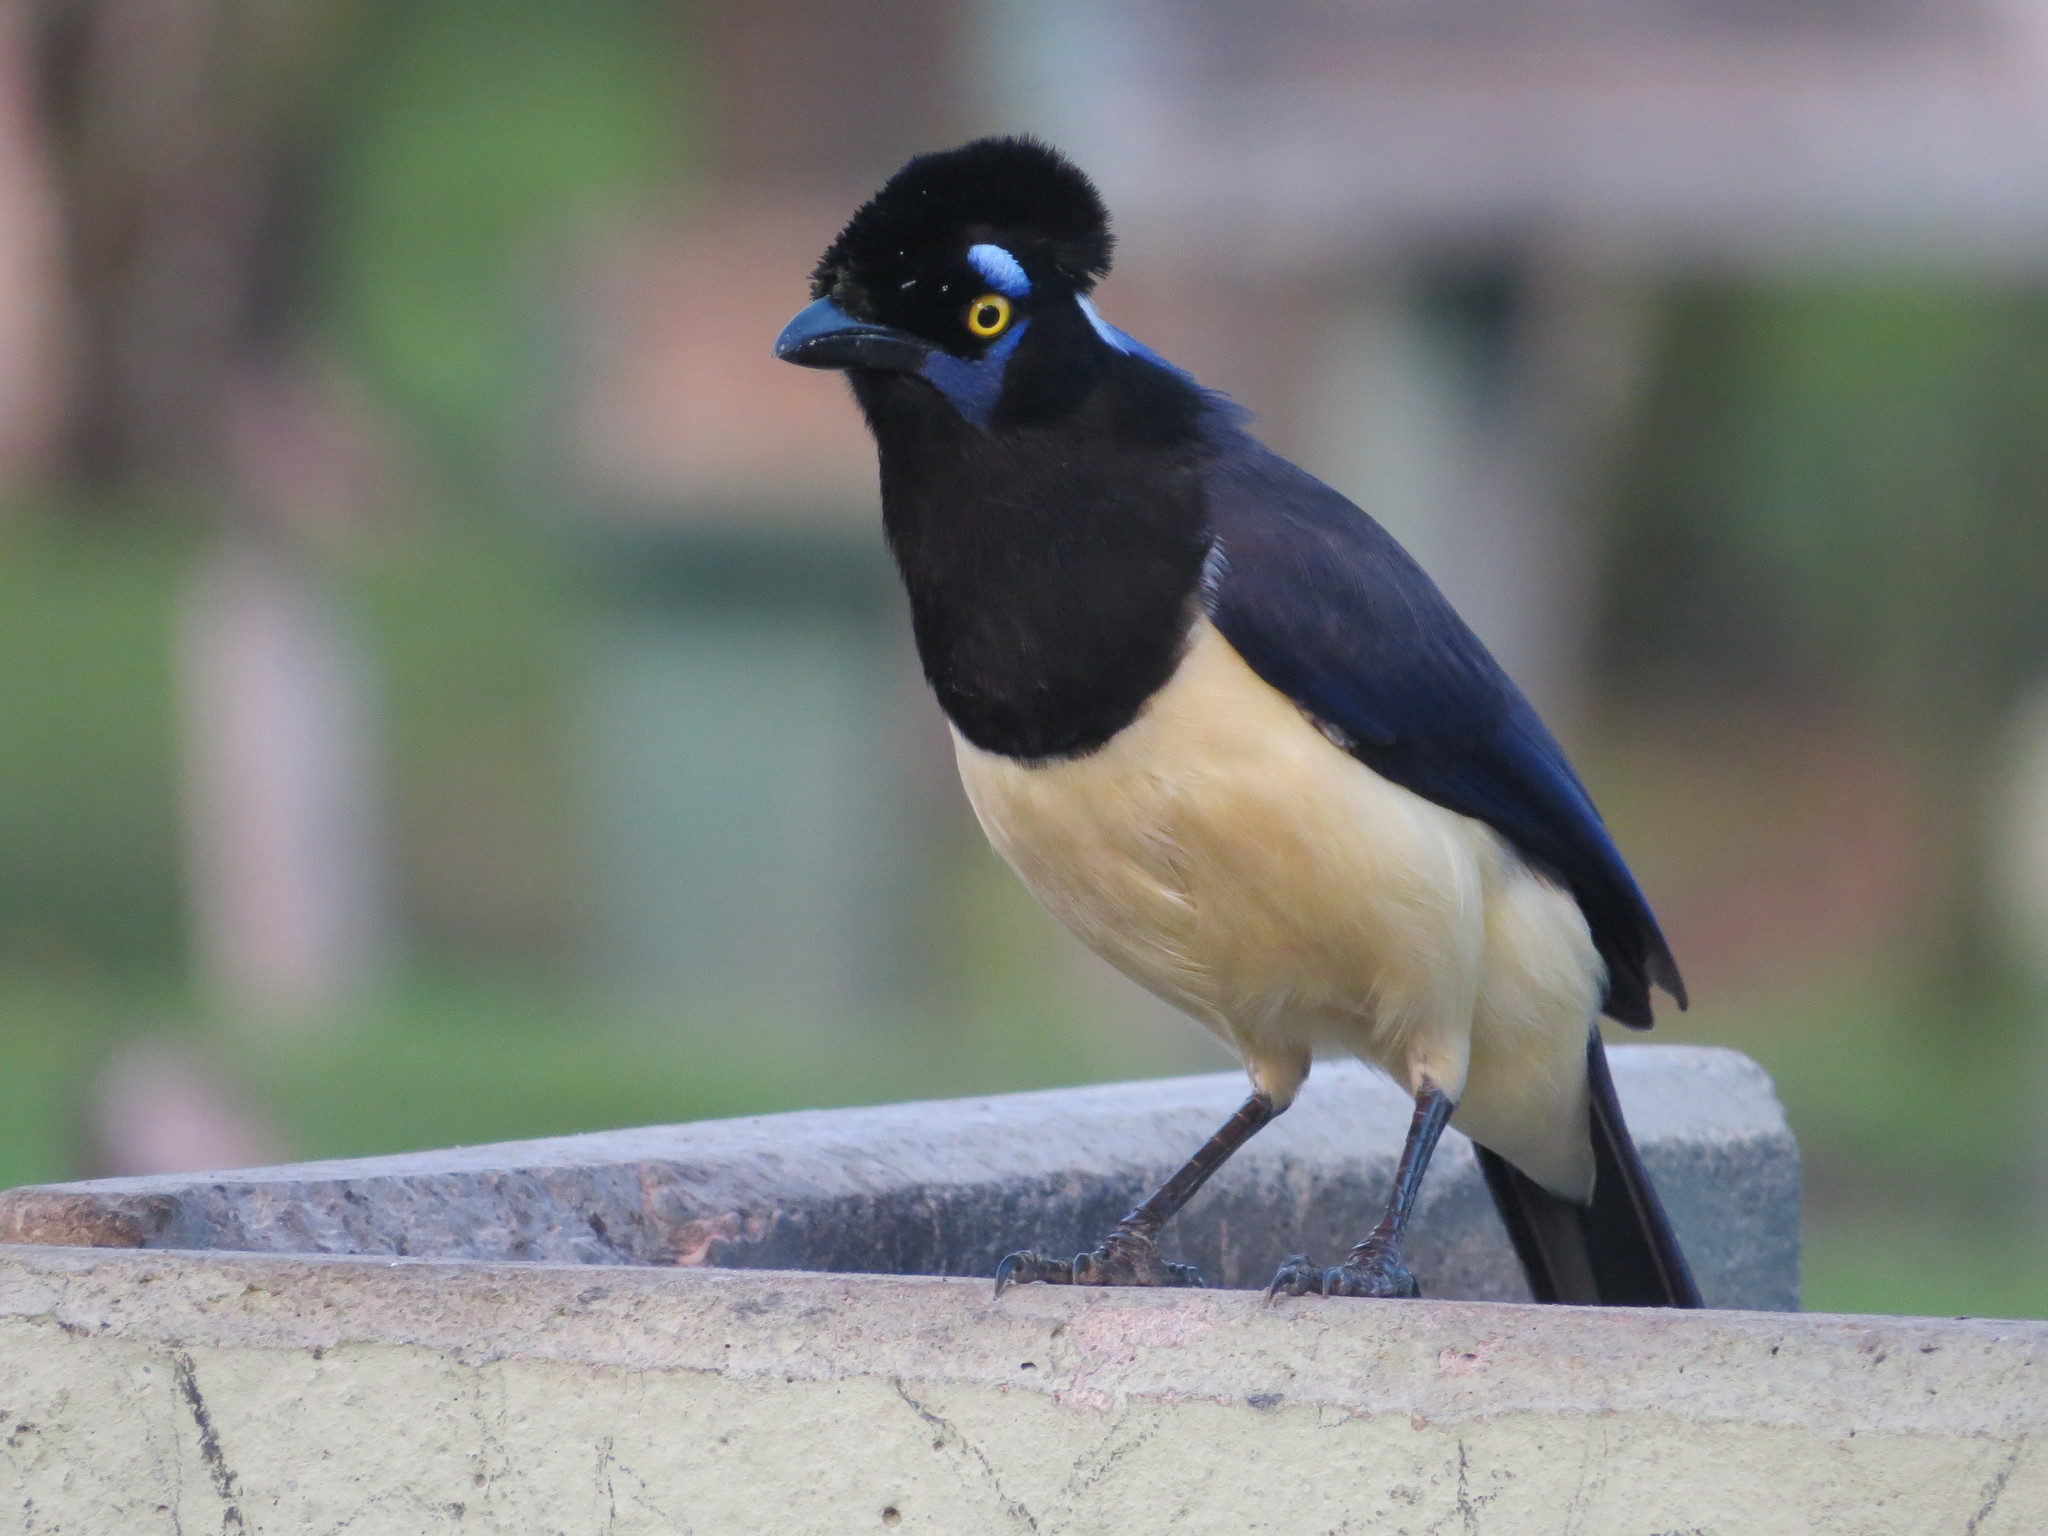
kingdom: Animalia
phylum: Chordata
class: Aves
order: Passeriformes
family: Corvidae
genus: Cyanocorax
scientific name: Cyanocorax chrysops
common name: Plush-crested jay
